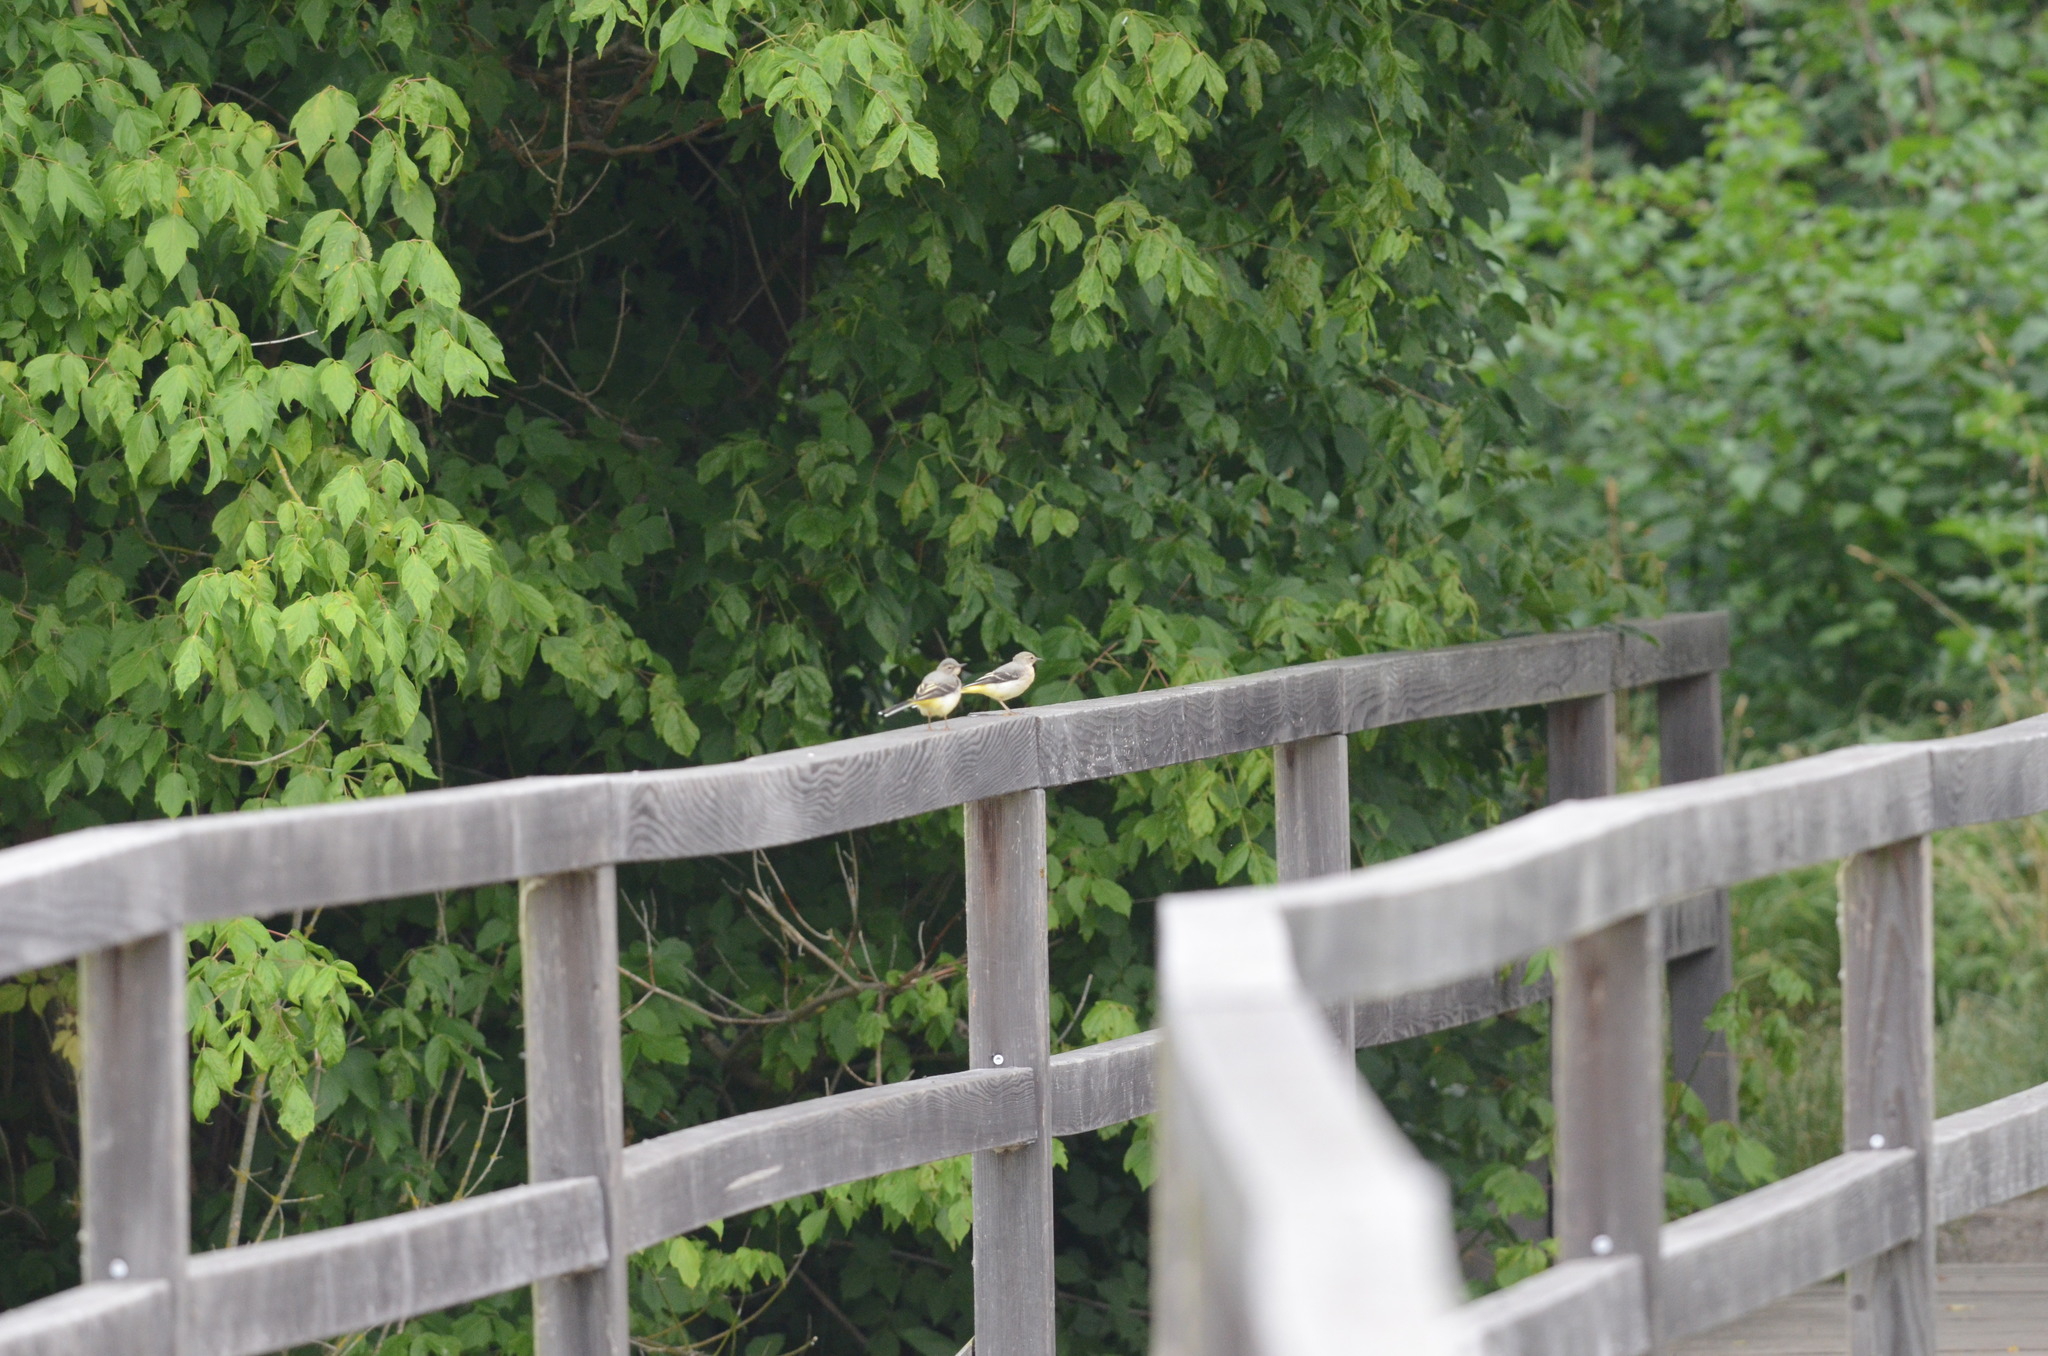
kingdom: Animalia
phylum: Chordata
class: Aves
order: Passeriformes
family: Motacillidae
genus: Motacilla
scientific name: Motacilla cinerea
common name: Grey wagtail
